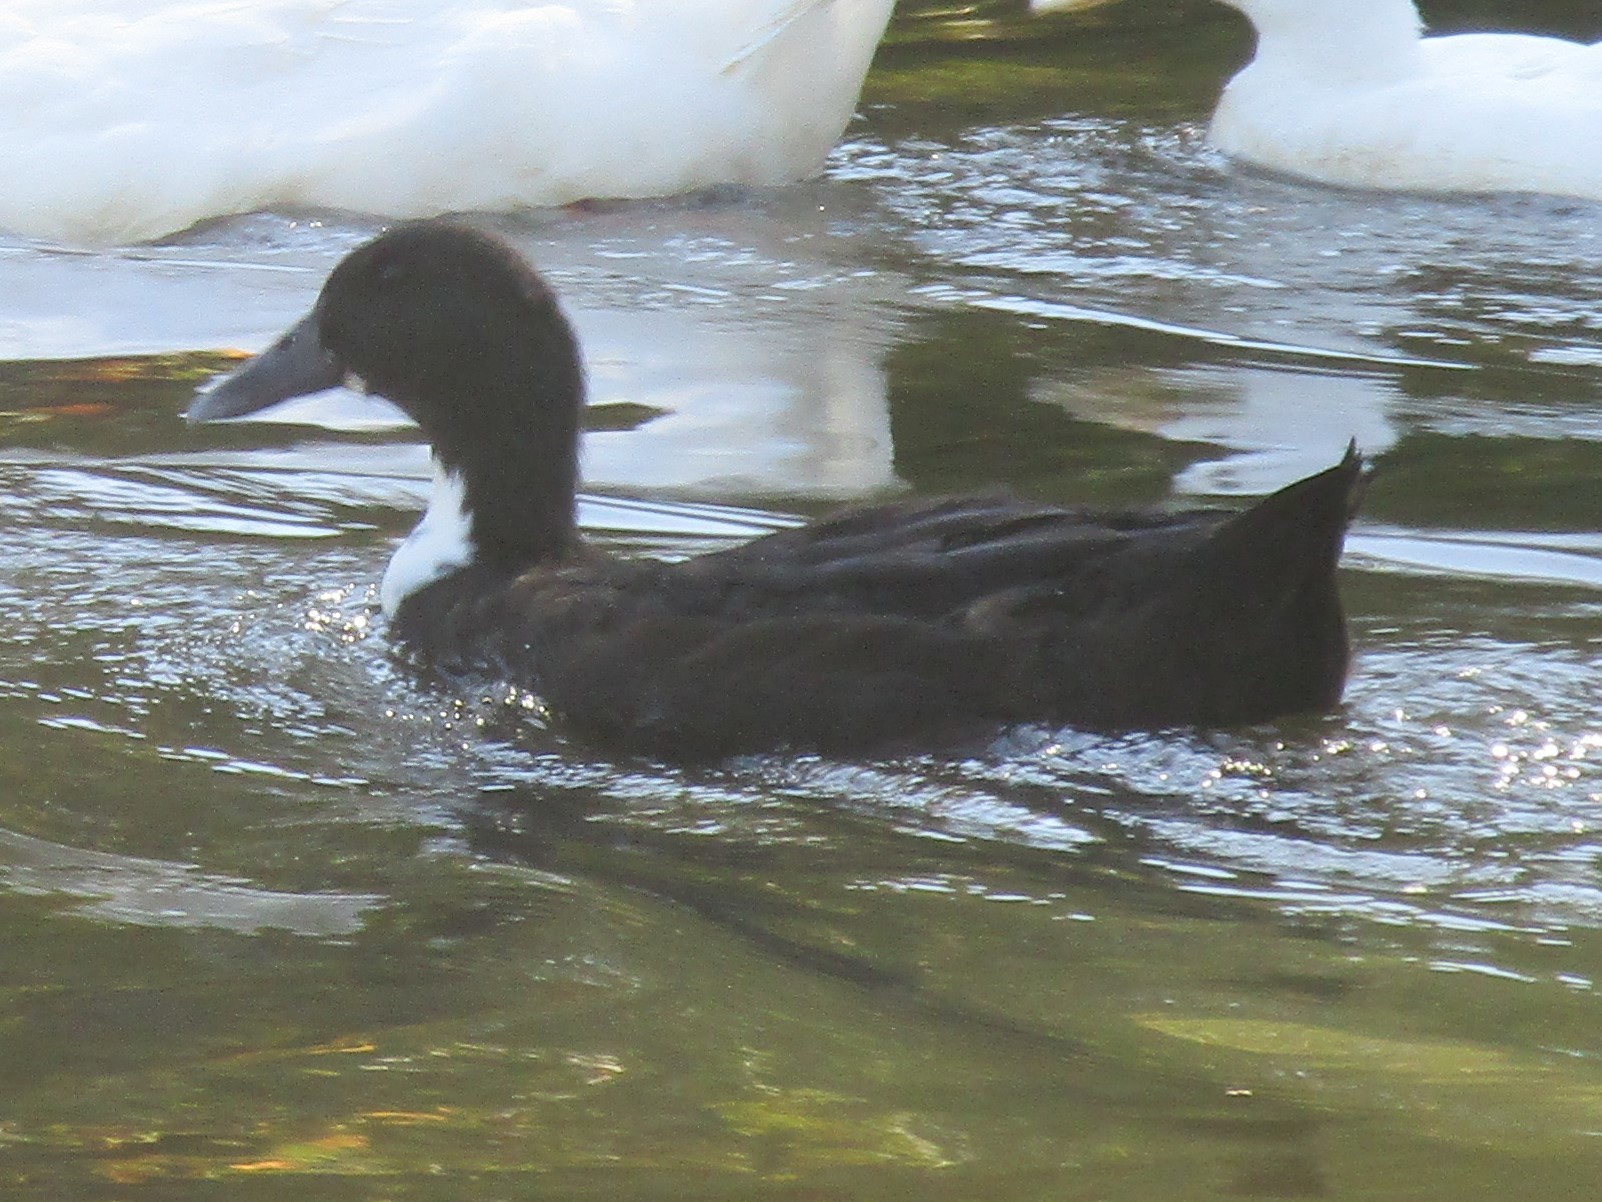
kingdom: Animalia
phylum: Chordata
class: Aves
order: Anseriformes
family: Anatidae
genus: Anas
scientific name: Anas platyrhynchos
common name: Mallard
